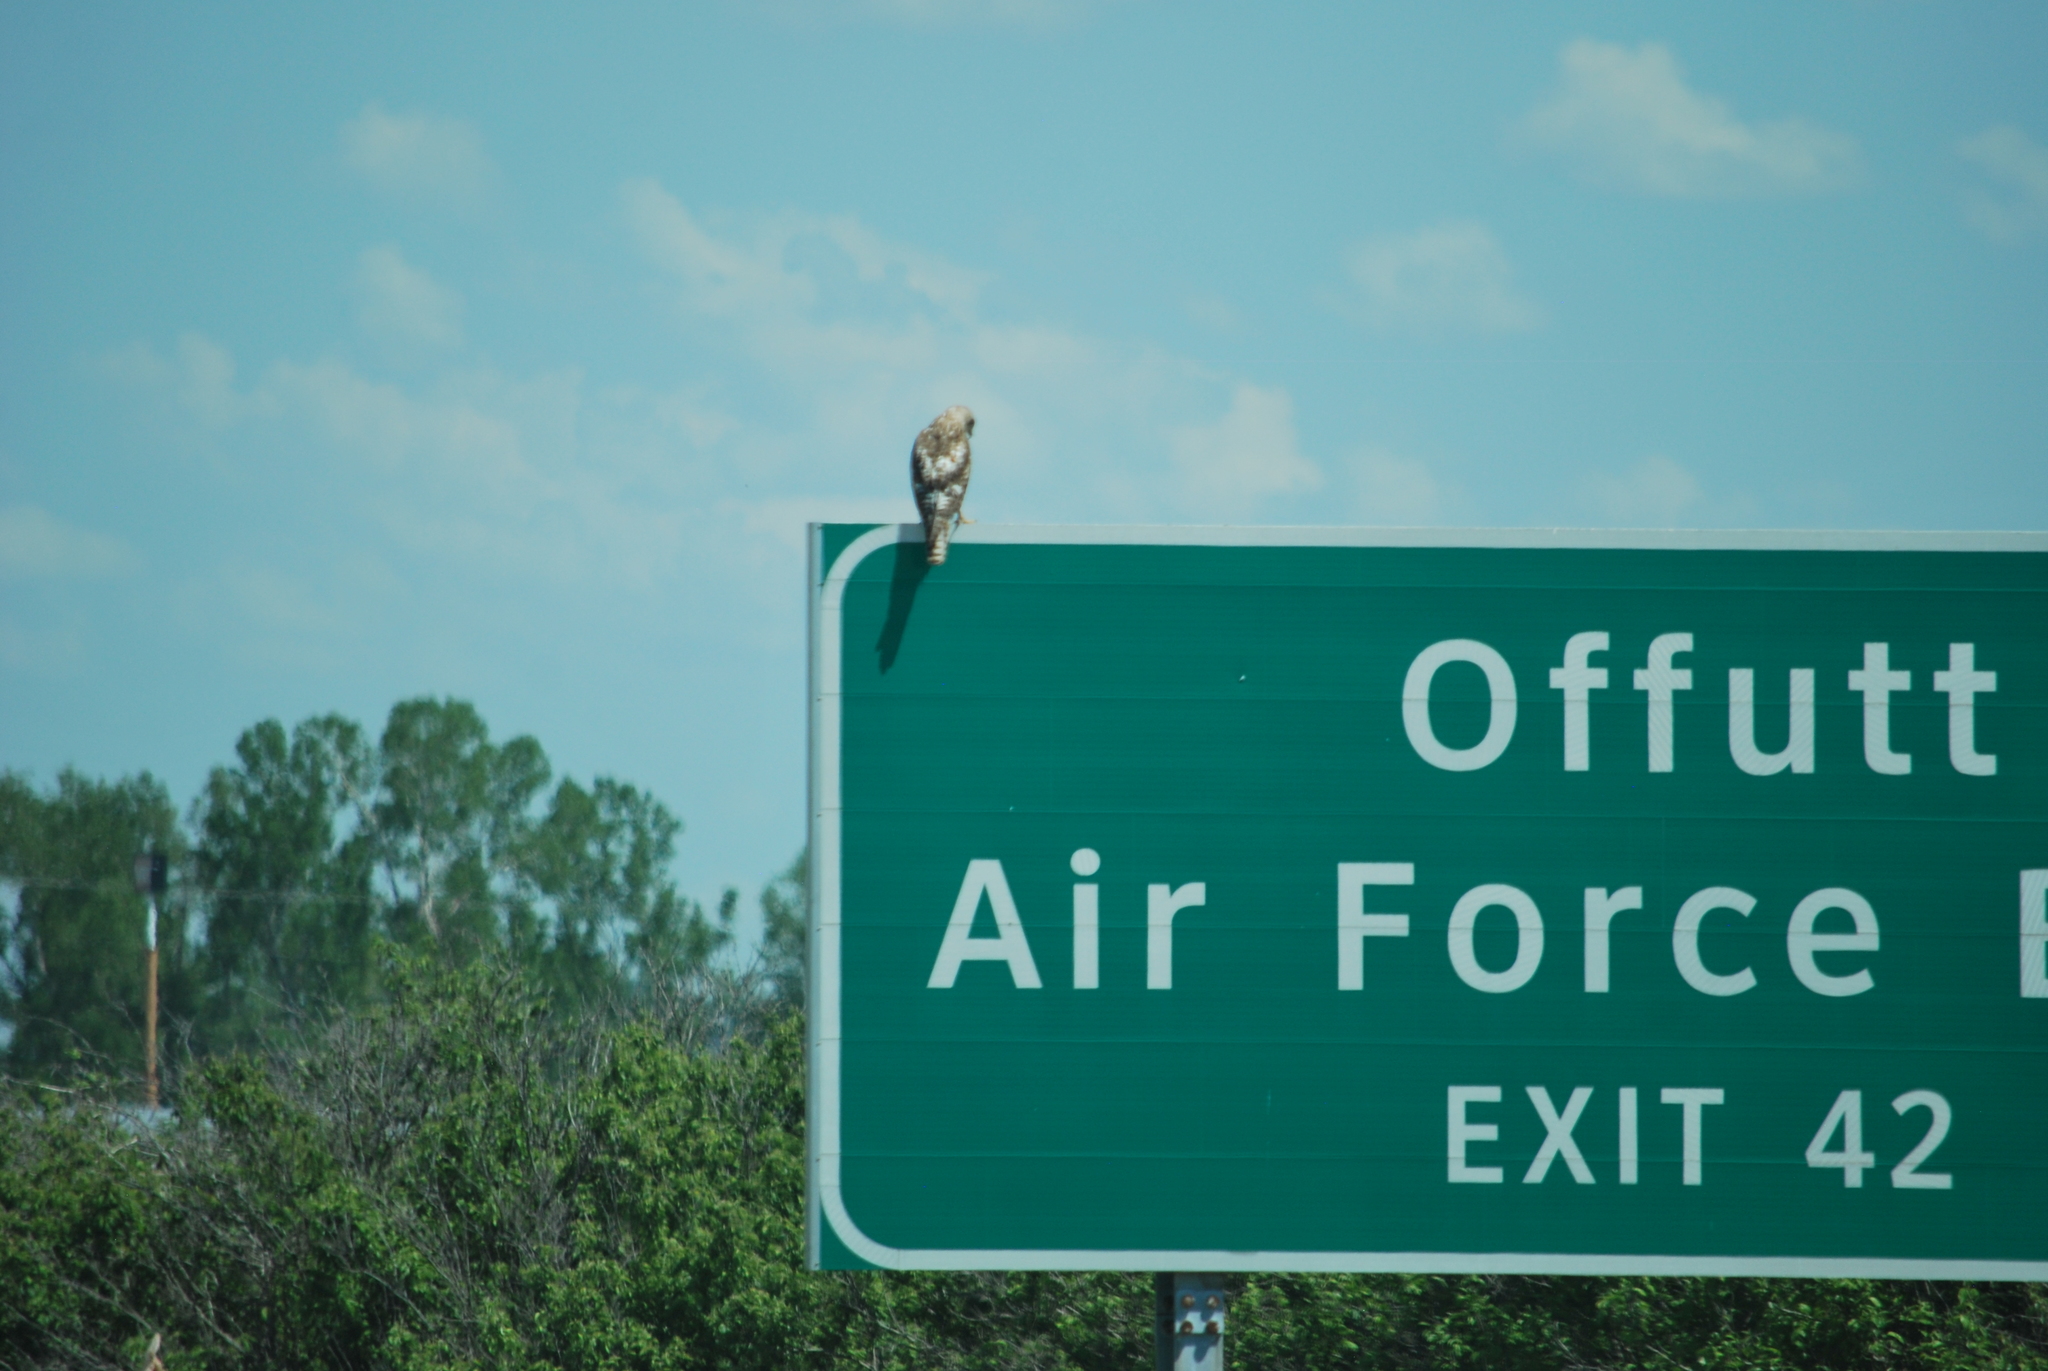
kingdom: Animalia
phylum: Chordata
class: Aves
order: Accipitriformes
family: Accipitridae
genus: Buteo
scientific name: Buteo jamaicensis
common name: Red-tailed hawk
